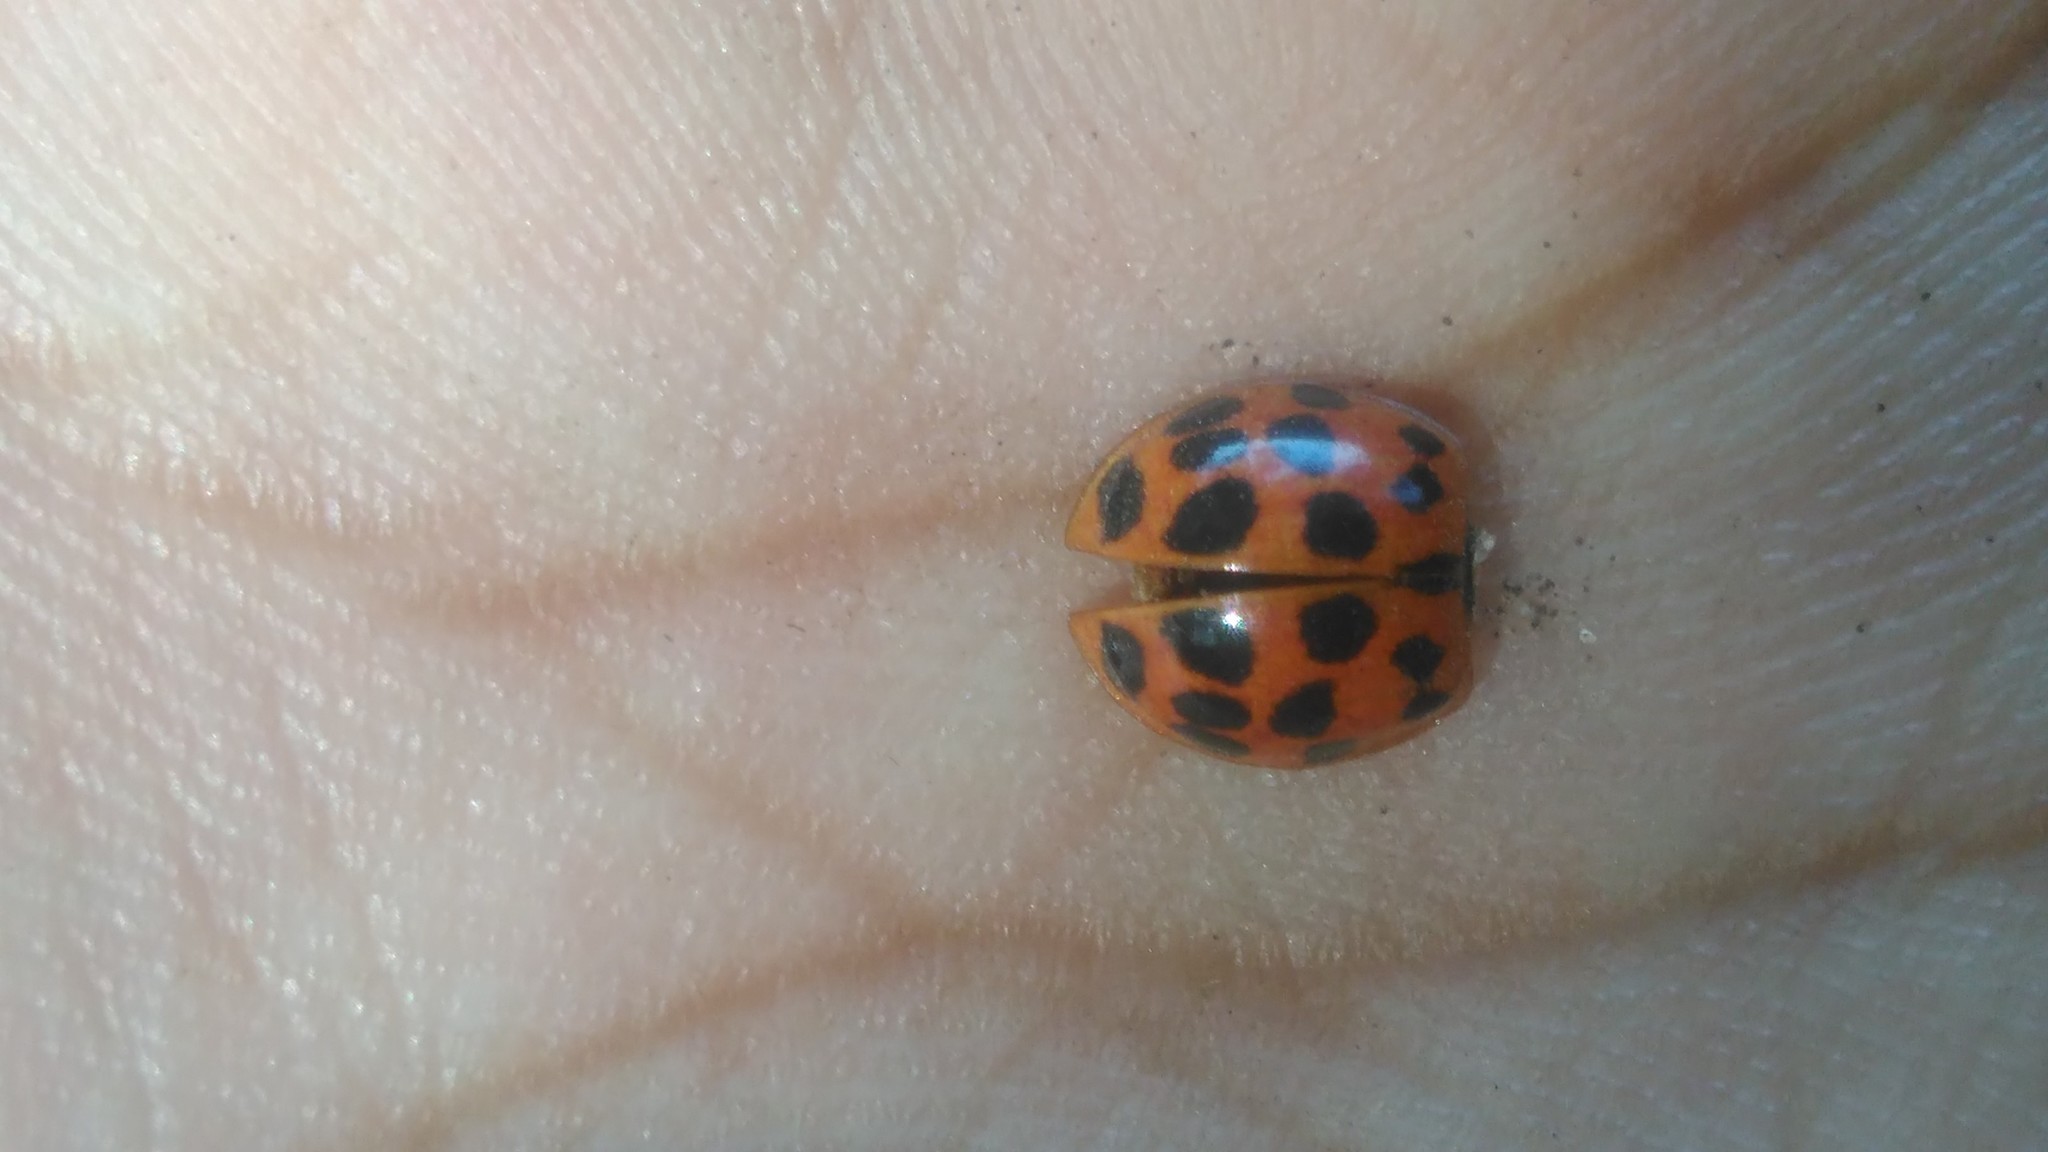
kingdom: Animalia
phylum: Arthropoda
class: Insecta
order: Coleoptera
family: Coccinellidae
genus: Harmonia
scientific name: Harmonia axyridis
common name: Harlequin ladybird
